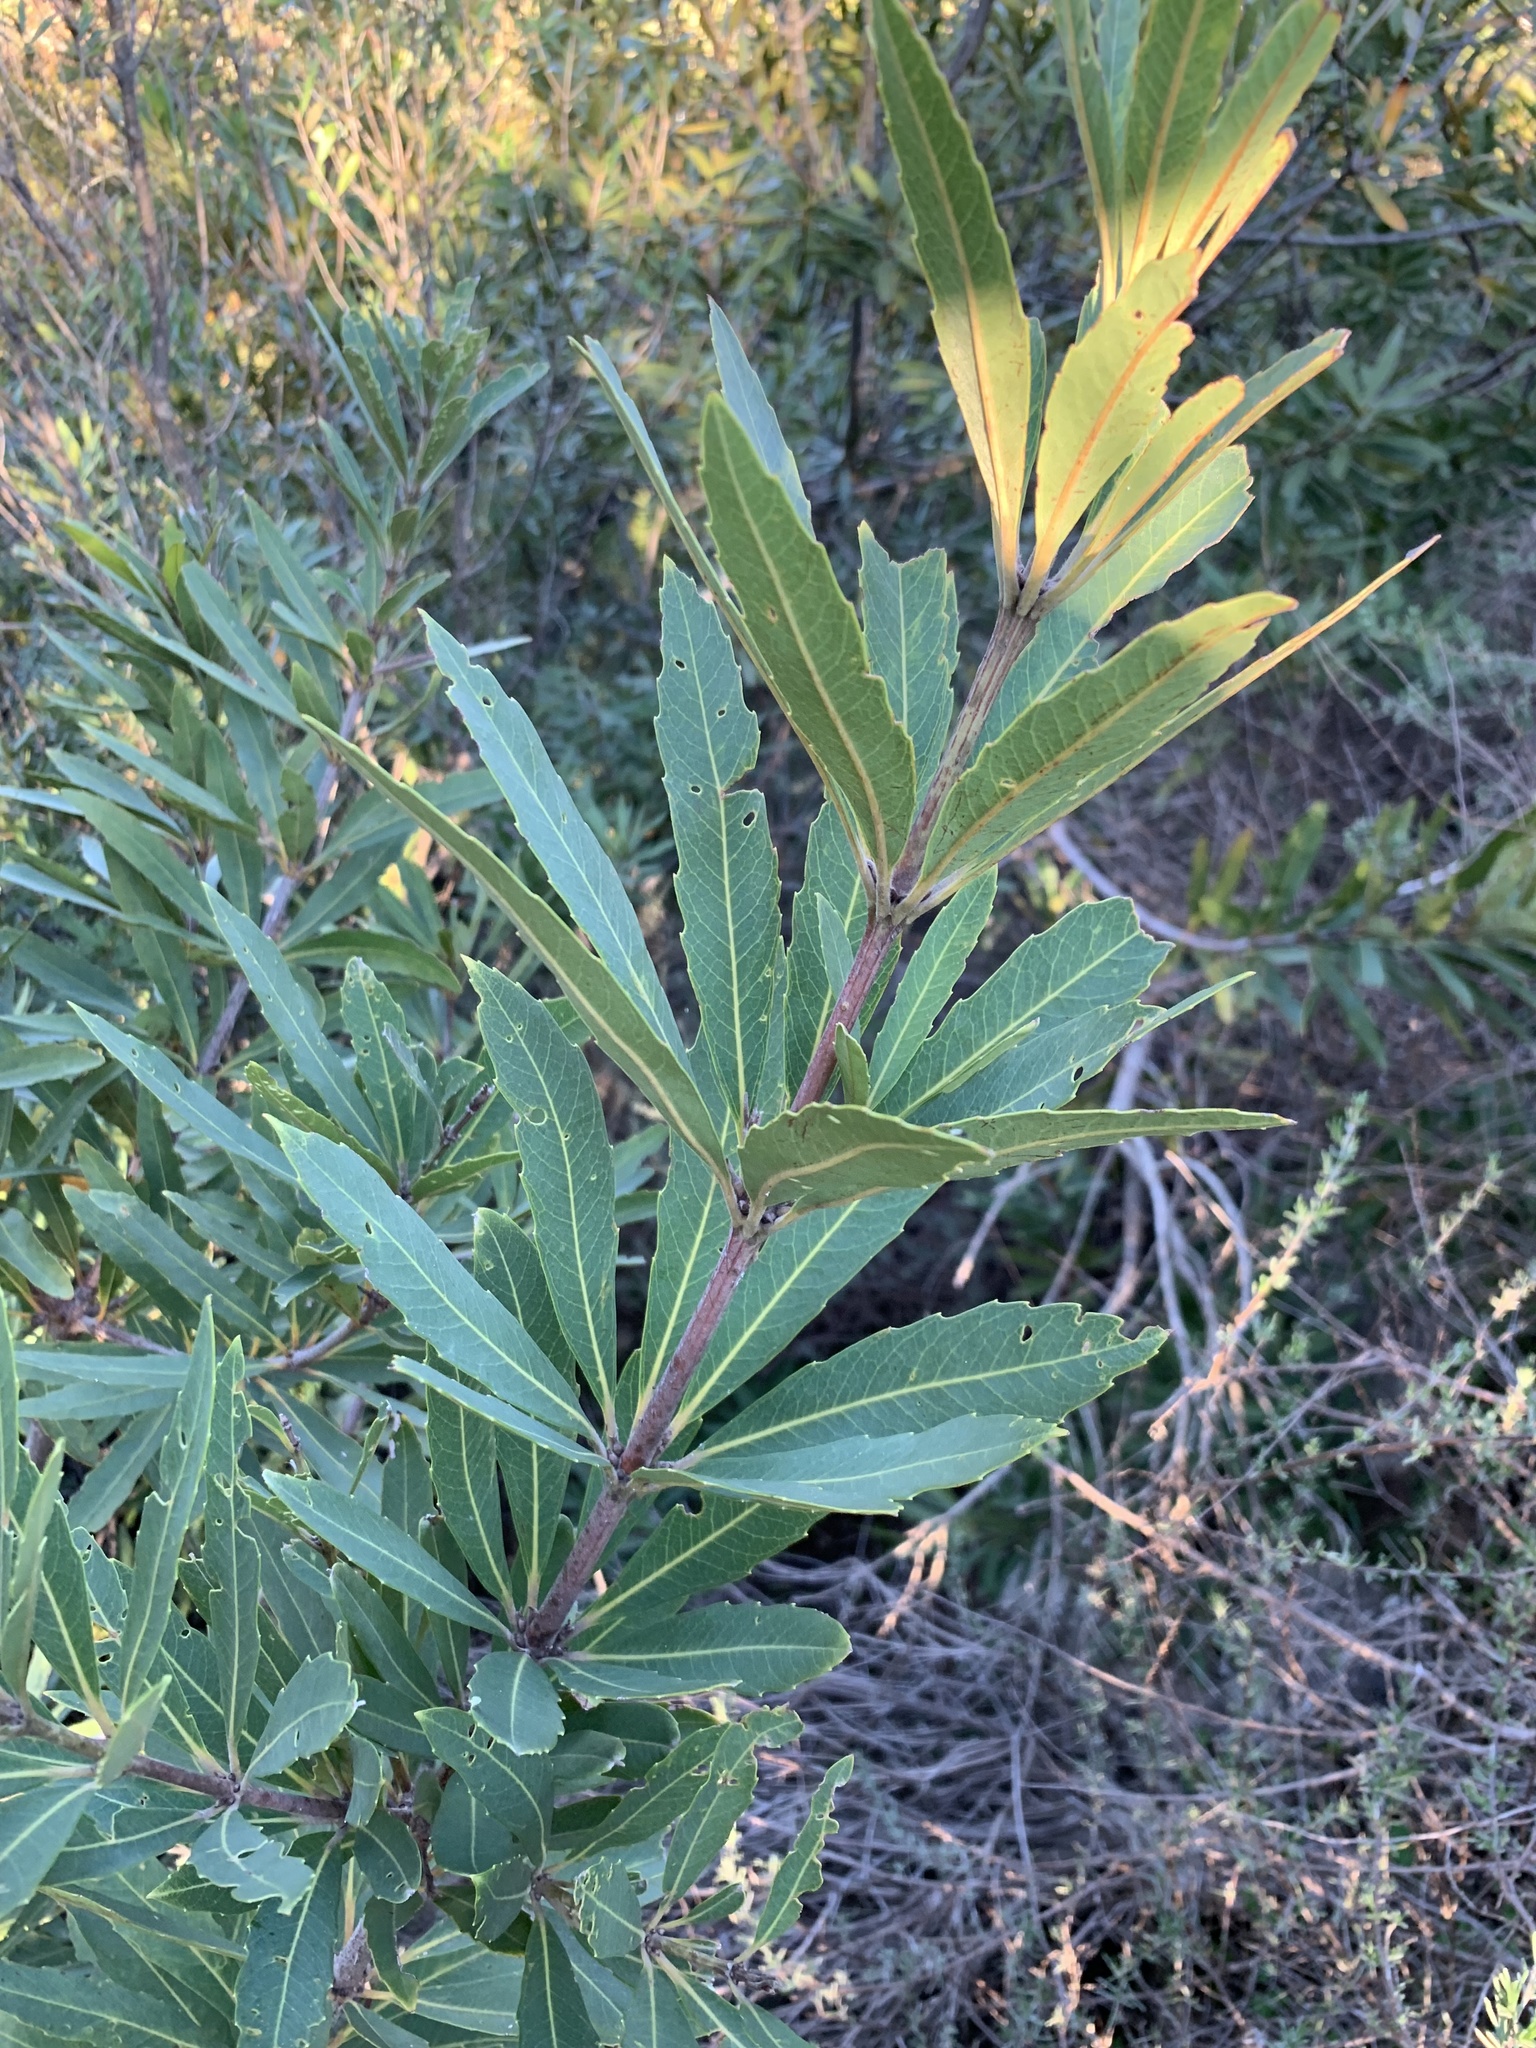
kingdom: Plantae
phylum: Tracheophyta
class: Magnoliopsida
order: Proteales
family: Proteaceae
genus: Brabejum
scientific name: Brabejum stellatifolium
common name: Wild almond
